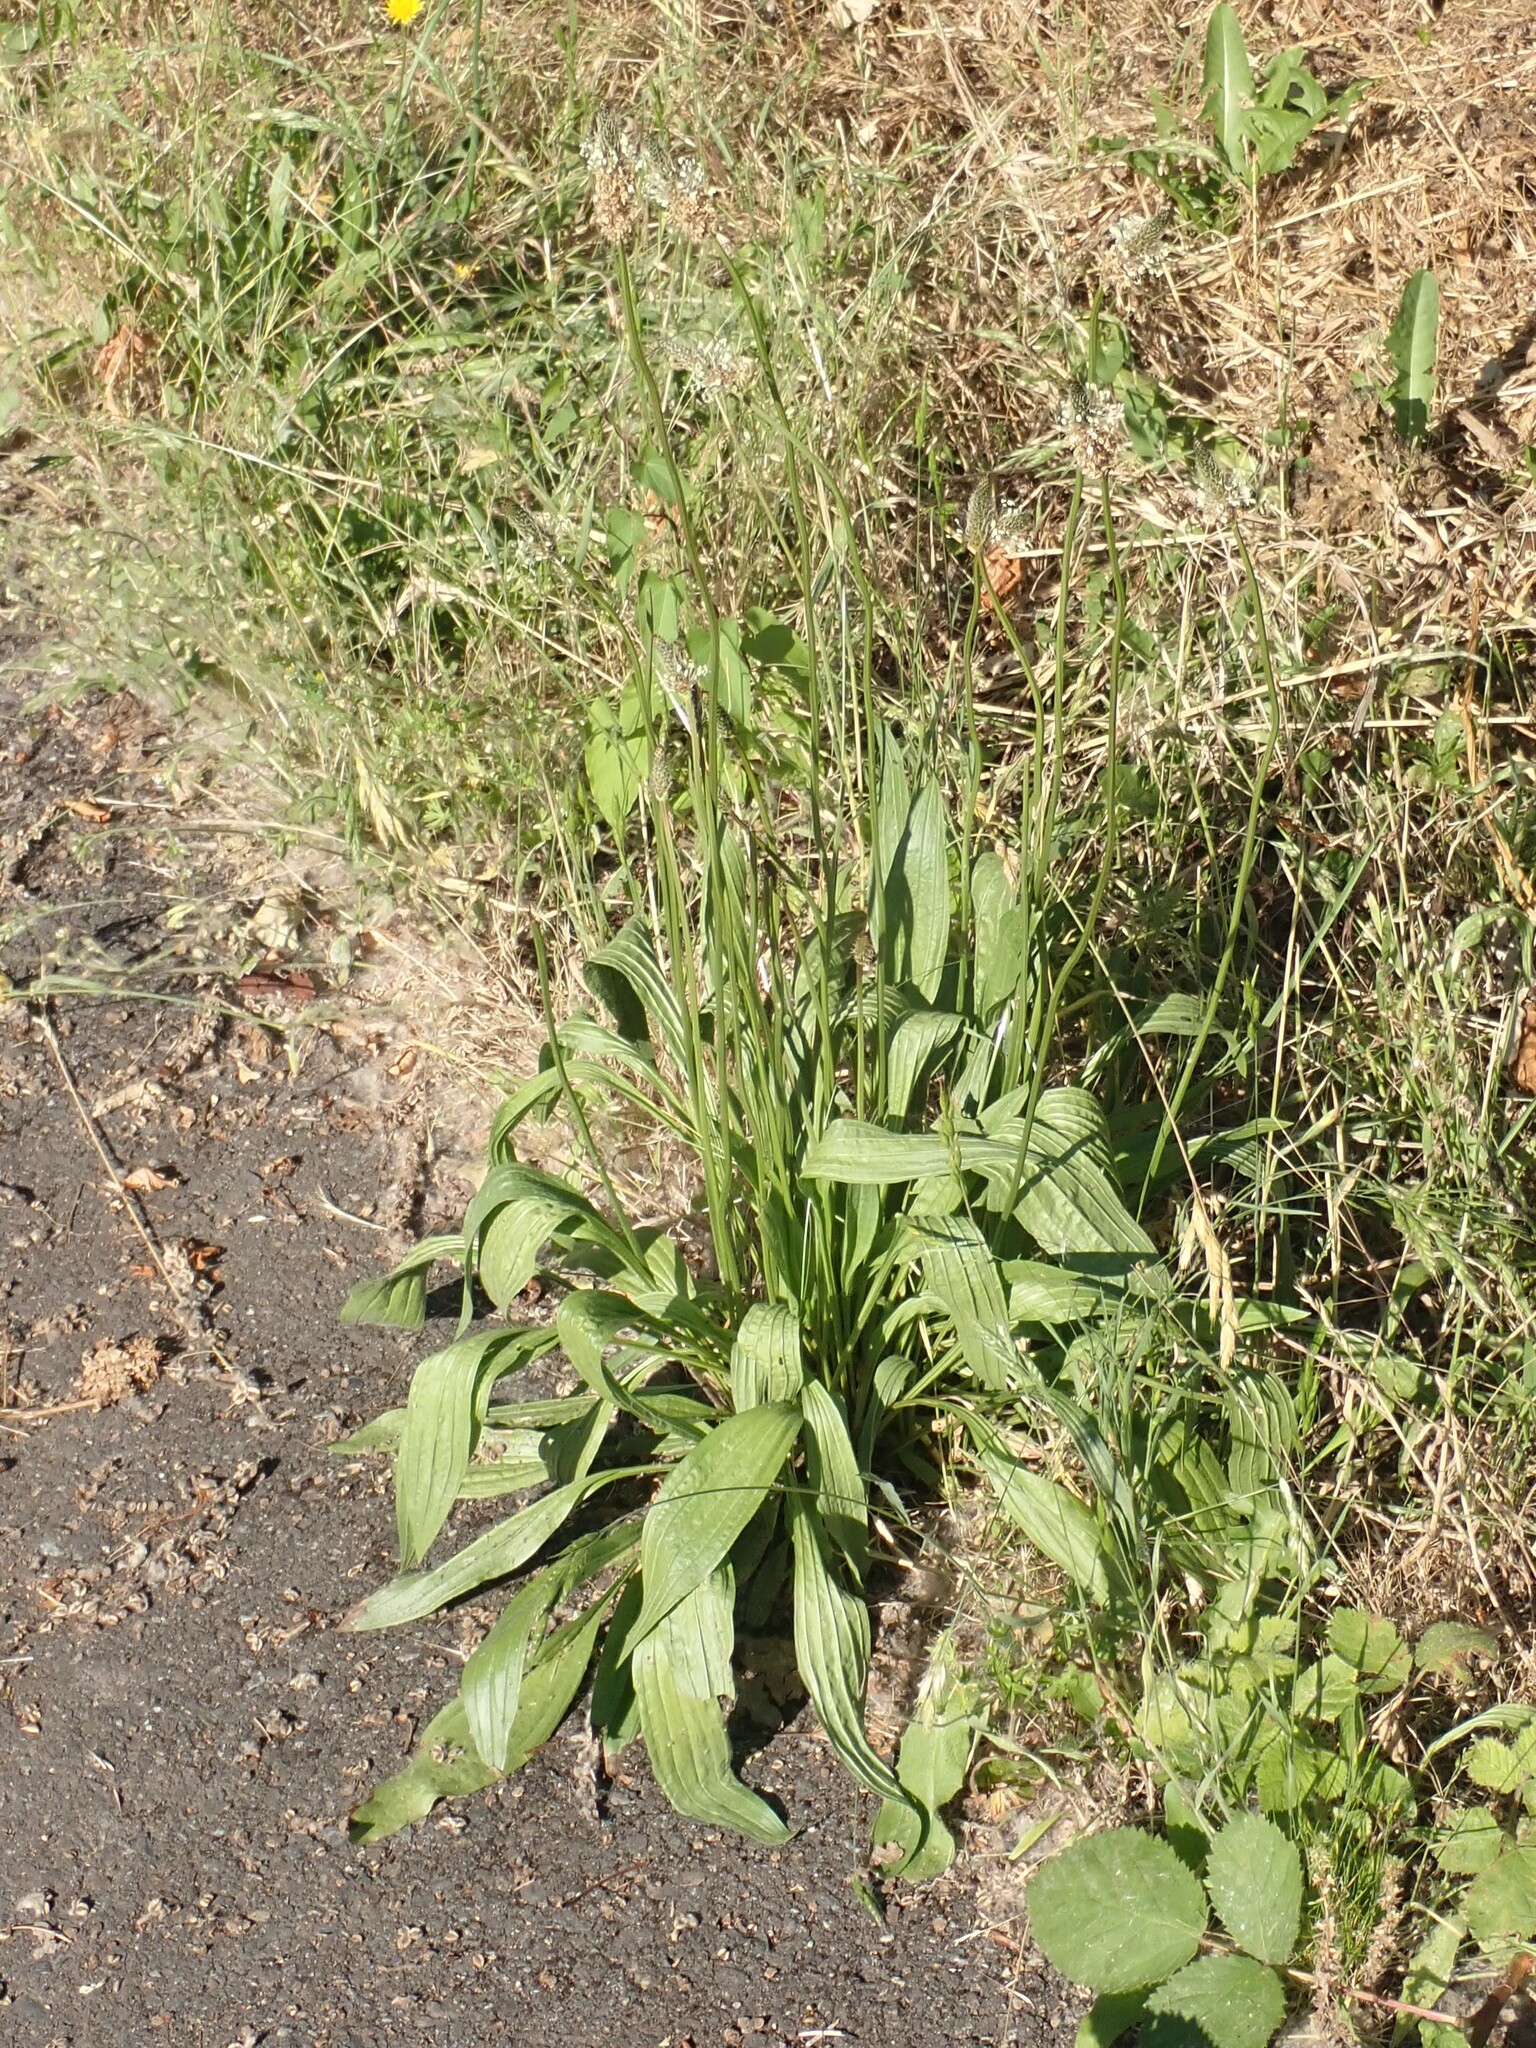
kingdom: Plantae
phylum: Tracheophyta
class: Magnoliopsida
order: Lamiales
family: Plantaginaceae
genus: Plantago
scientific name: Plantago lanceolata
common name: Ribwort plantain
